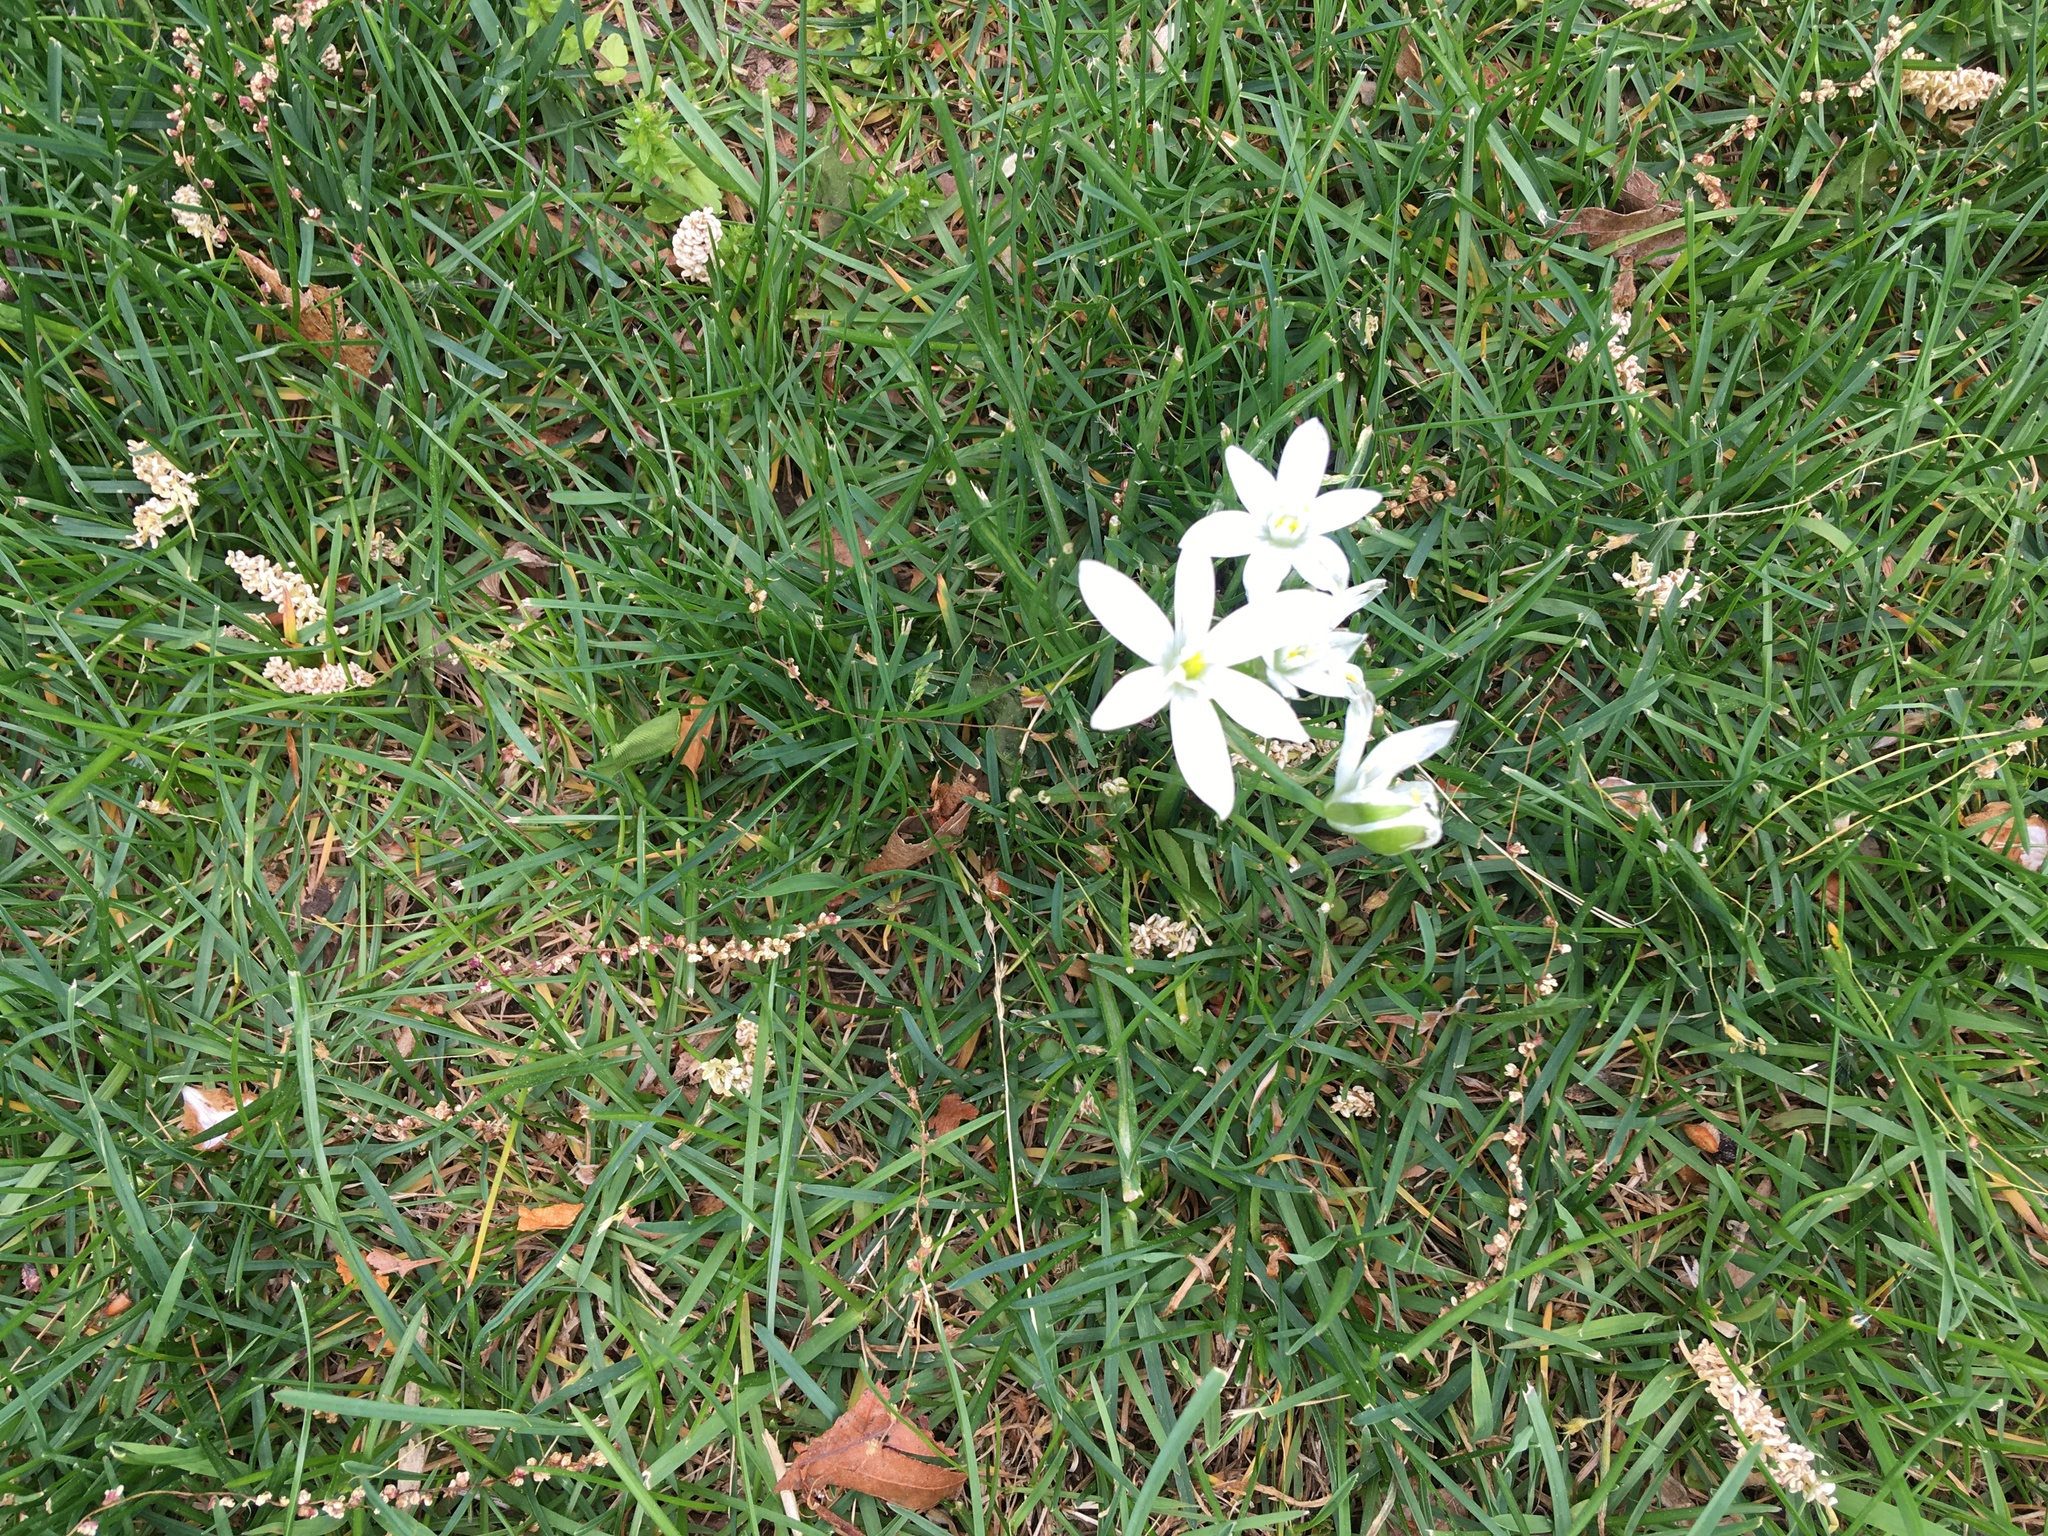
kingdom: Plantae
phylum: Tracheophyta
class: Liliopsida
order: Asparagales
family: Asparagaceae
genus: Ornithogalum
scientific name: Ornithogalum umbellatum
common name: Garden star-of-bethlehem
